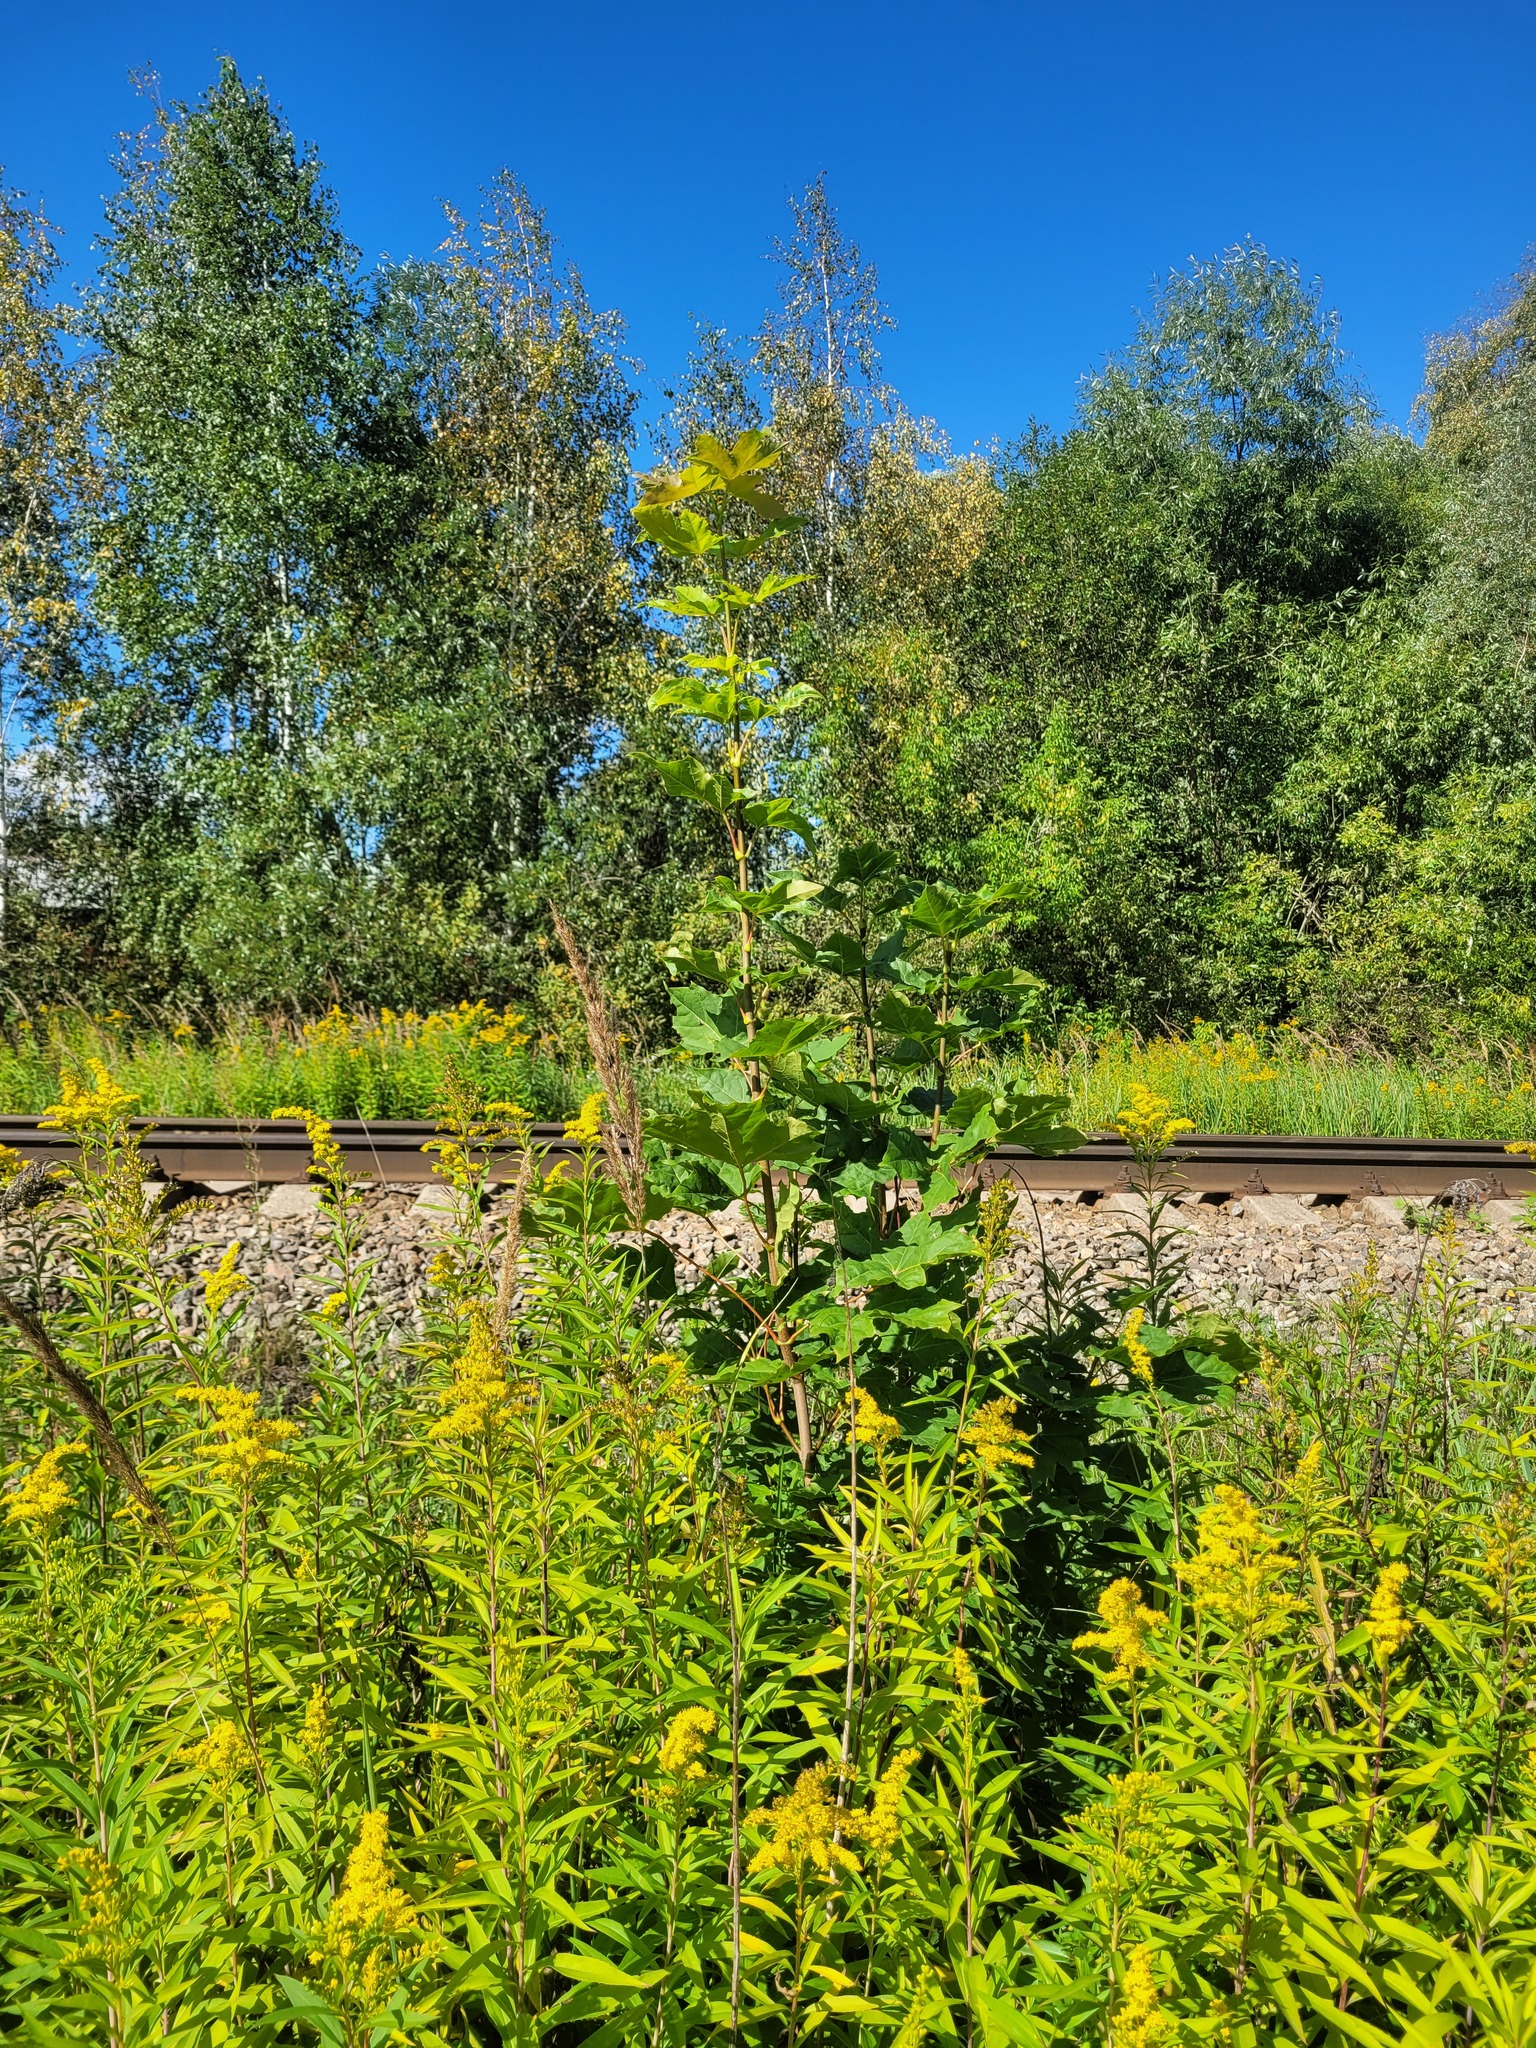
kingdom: Plantae
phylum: Tracheophyta
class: Magnoliopsida
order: Sapindales
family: Sapindaceae
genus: Acer
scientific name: Acer platanoides
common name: Norway maple
